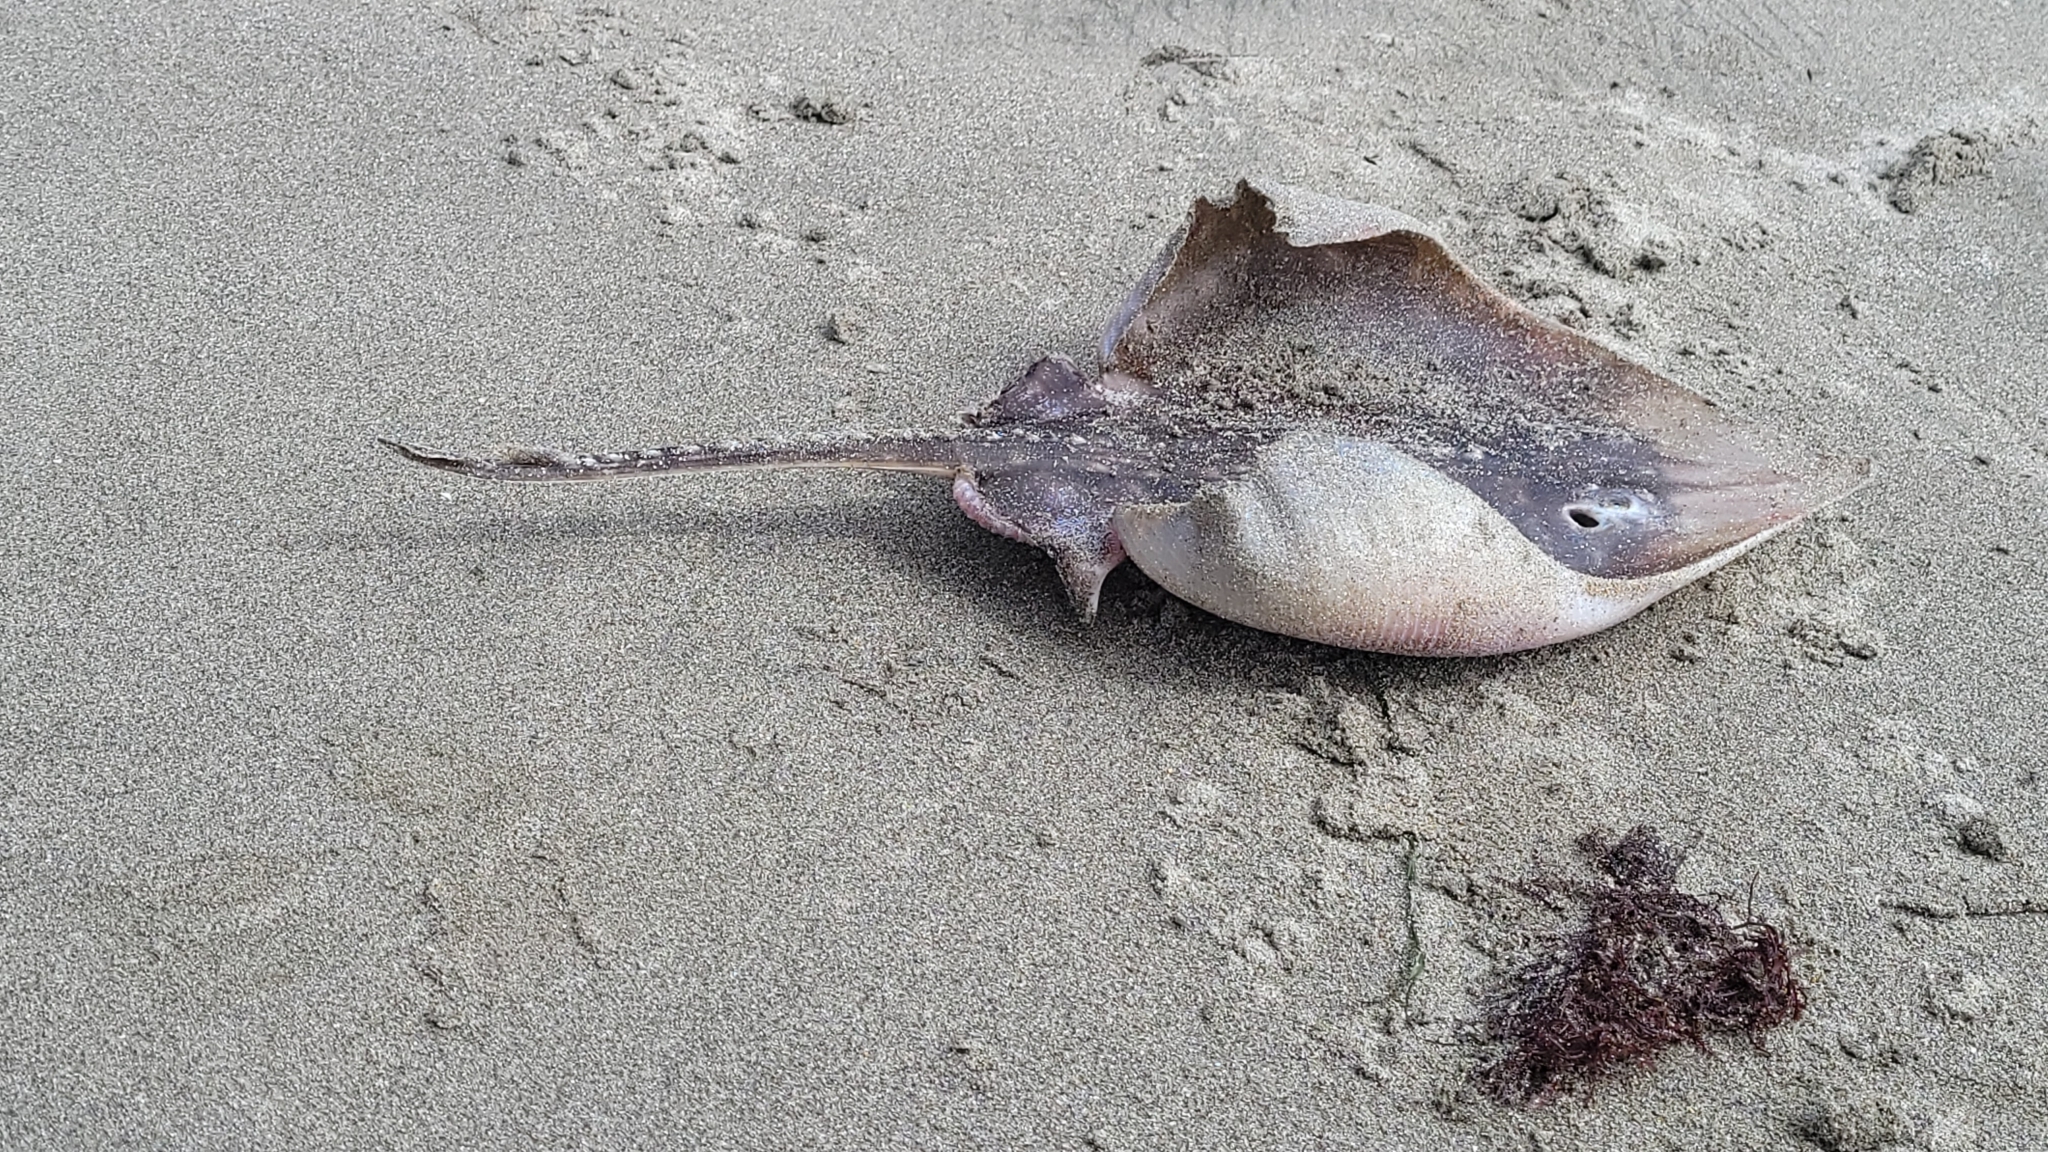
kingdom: Animalia
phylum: Chordata
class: Elasmobranchii
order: Rajiformes
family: Rajidae
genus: Beringraja
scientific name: Beringraja binoculata
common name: Big skate
